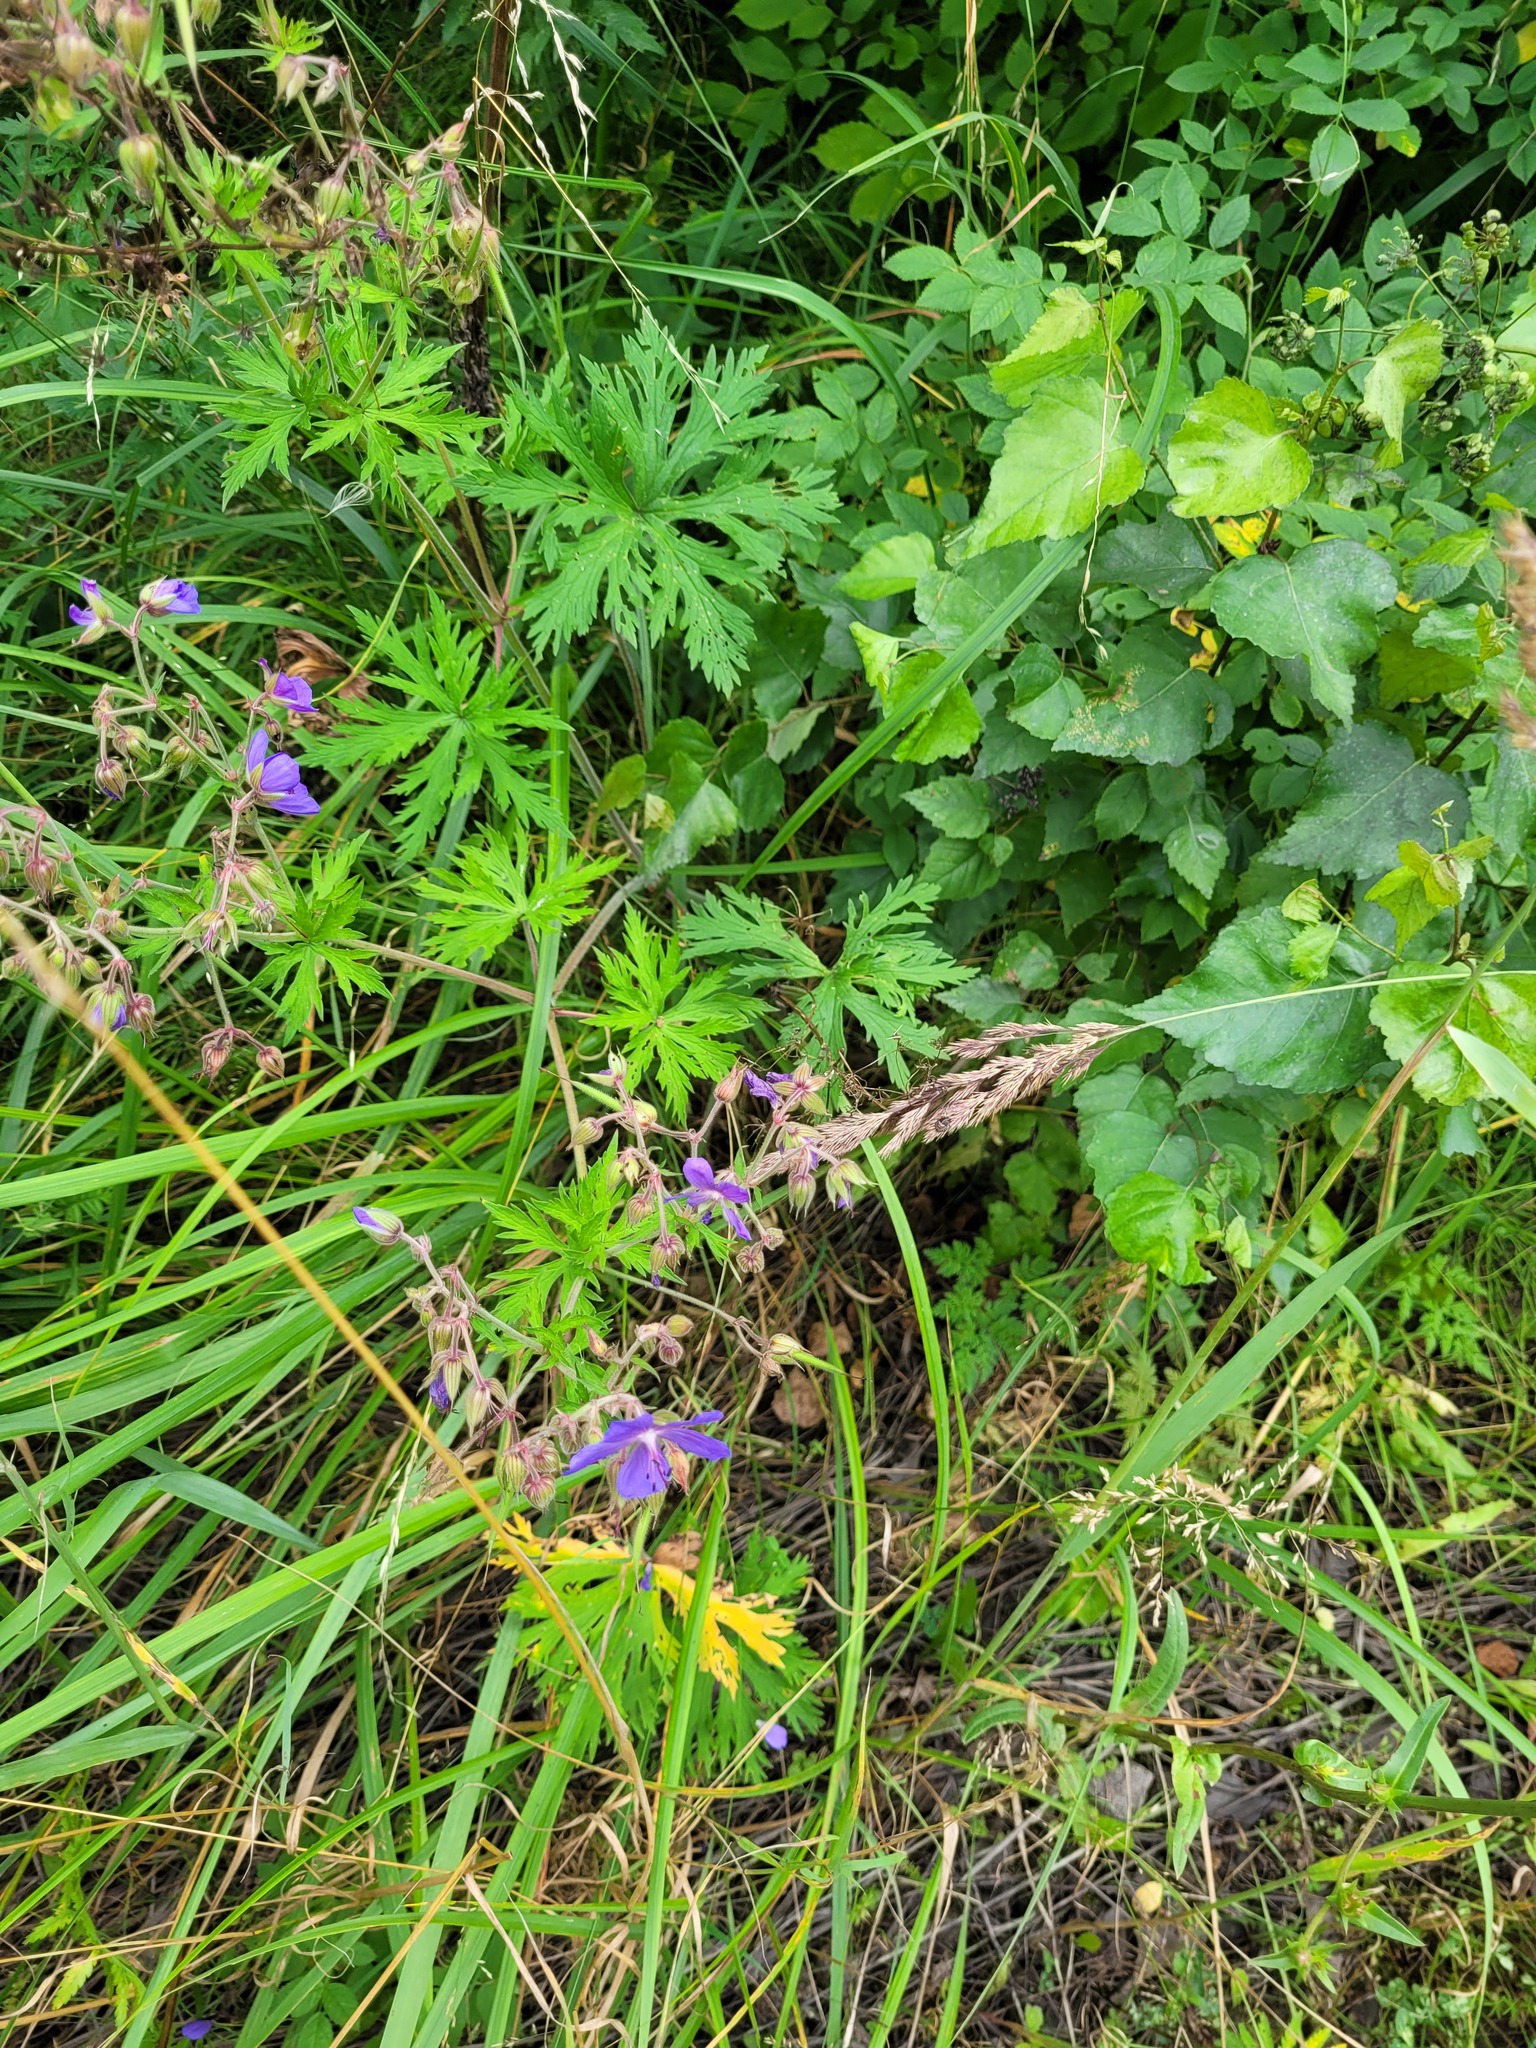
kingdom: Plantae
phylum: Tracheophyta
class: Magnoliopsida
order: Geraniales
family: Geraniaceae
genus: Geranium
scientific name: Geranium pratense
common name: Meadow crane's-bill
